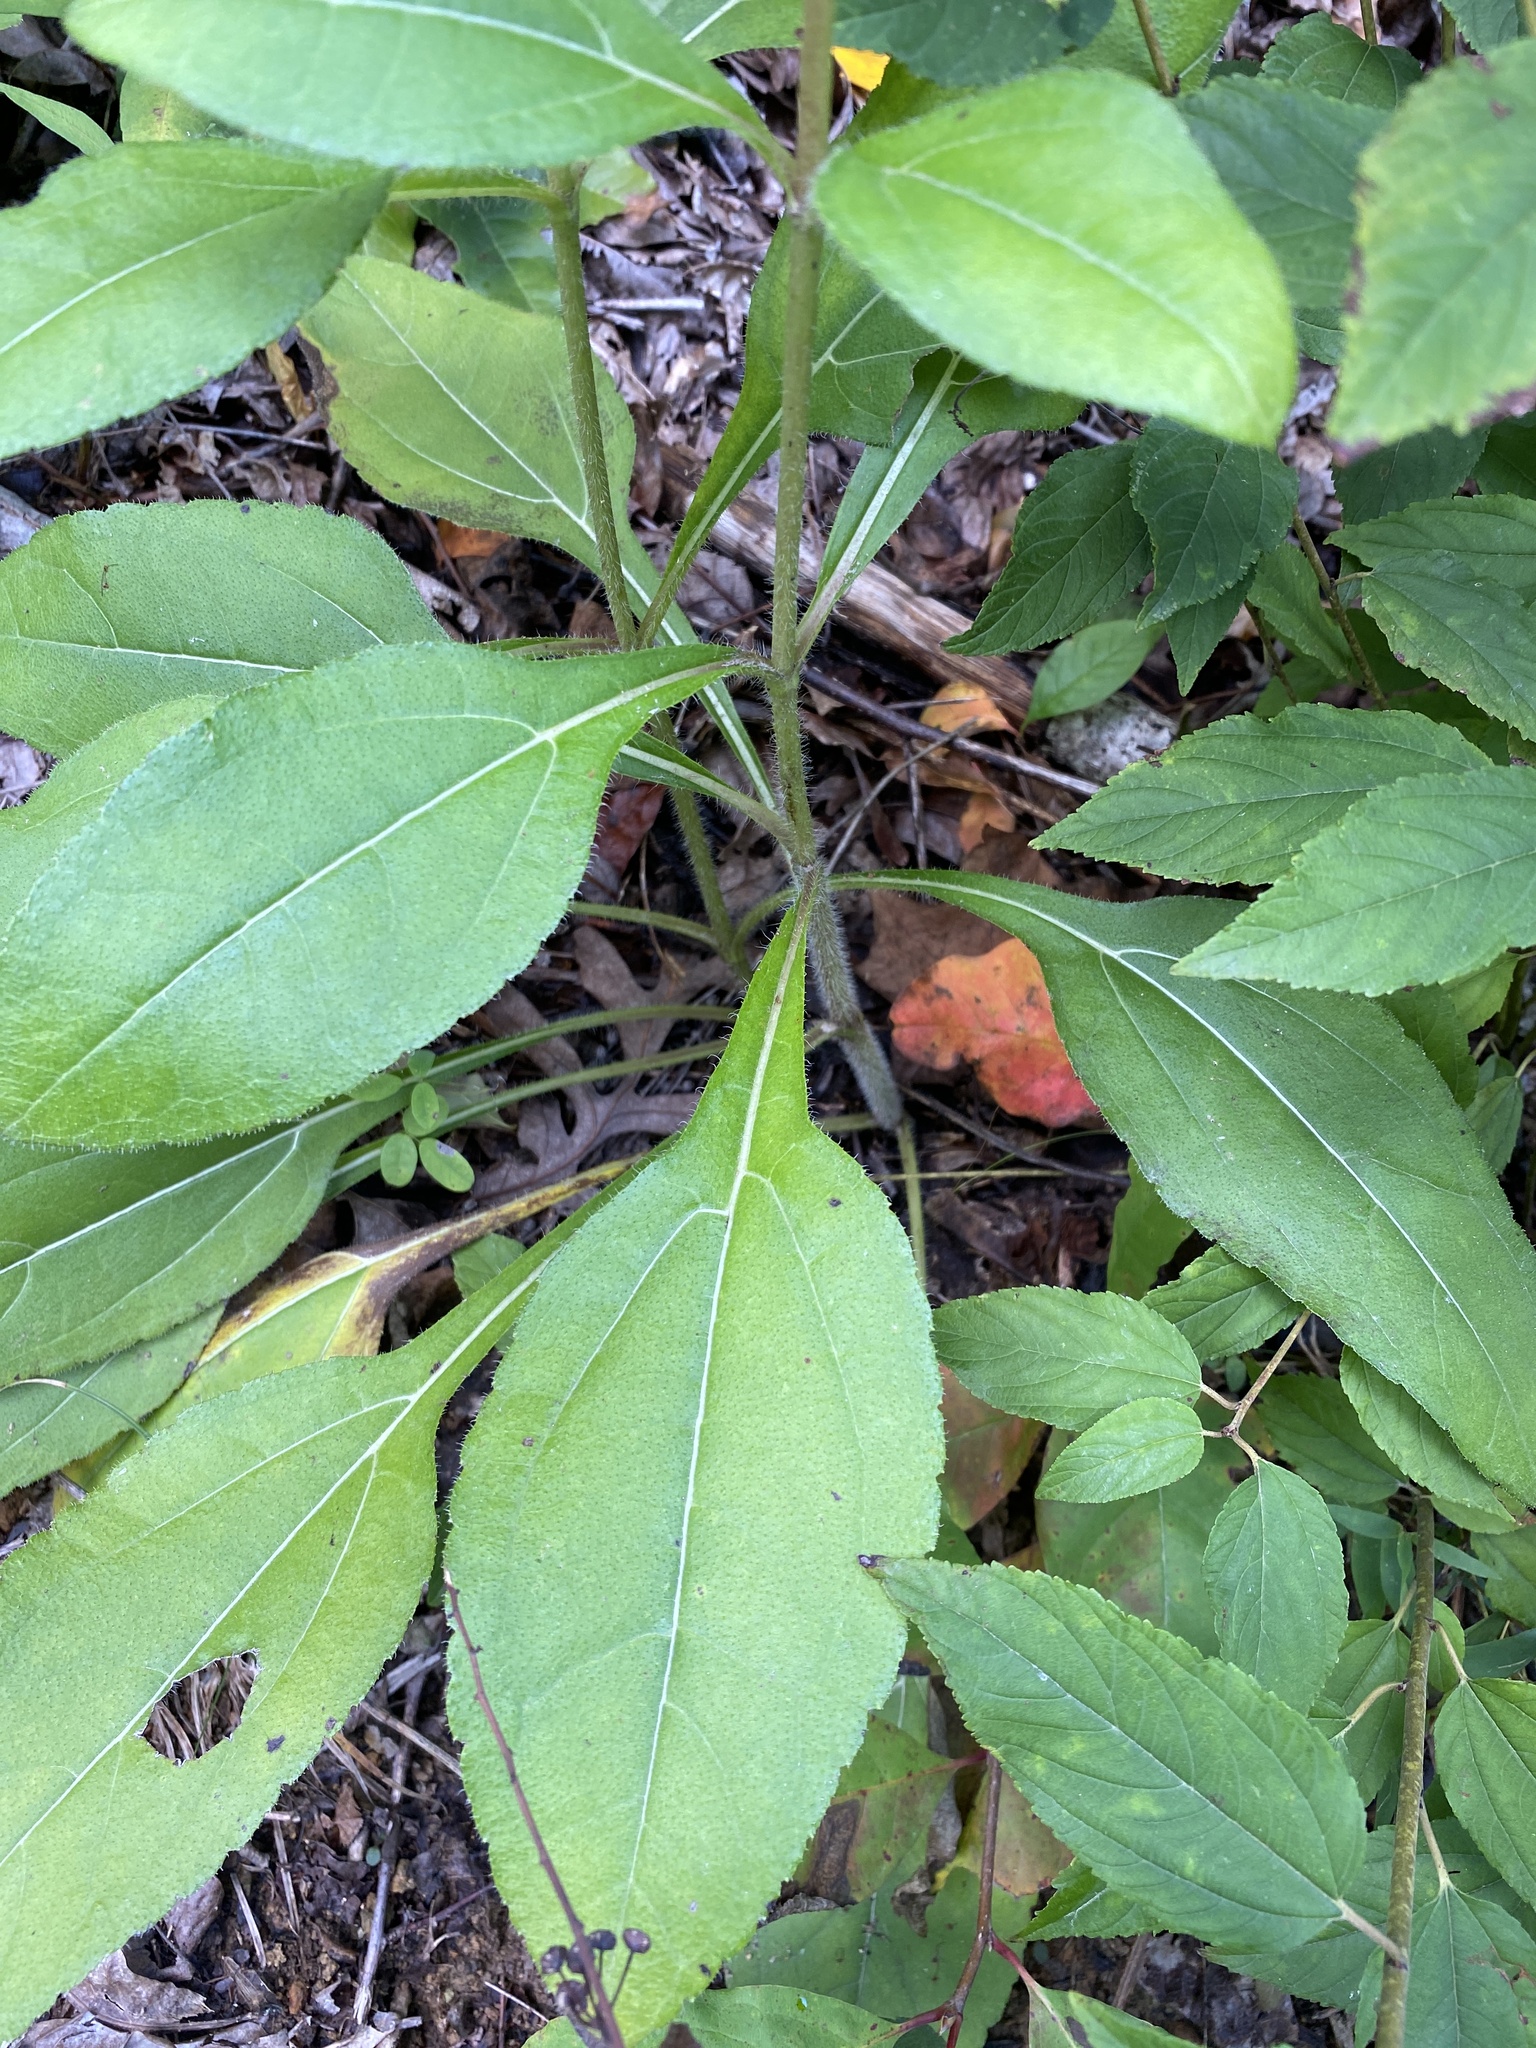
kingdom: Plantae
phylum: Tracheophyta
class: Magnoliopsida
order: Asterales
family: Asteraceae
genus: Silphium
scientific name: Silphium asteriscus
